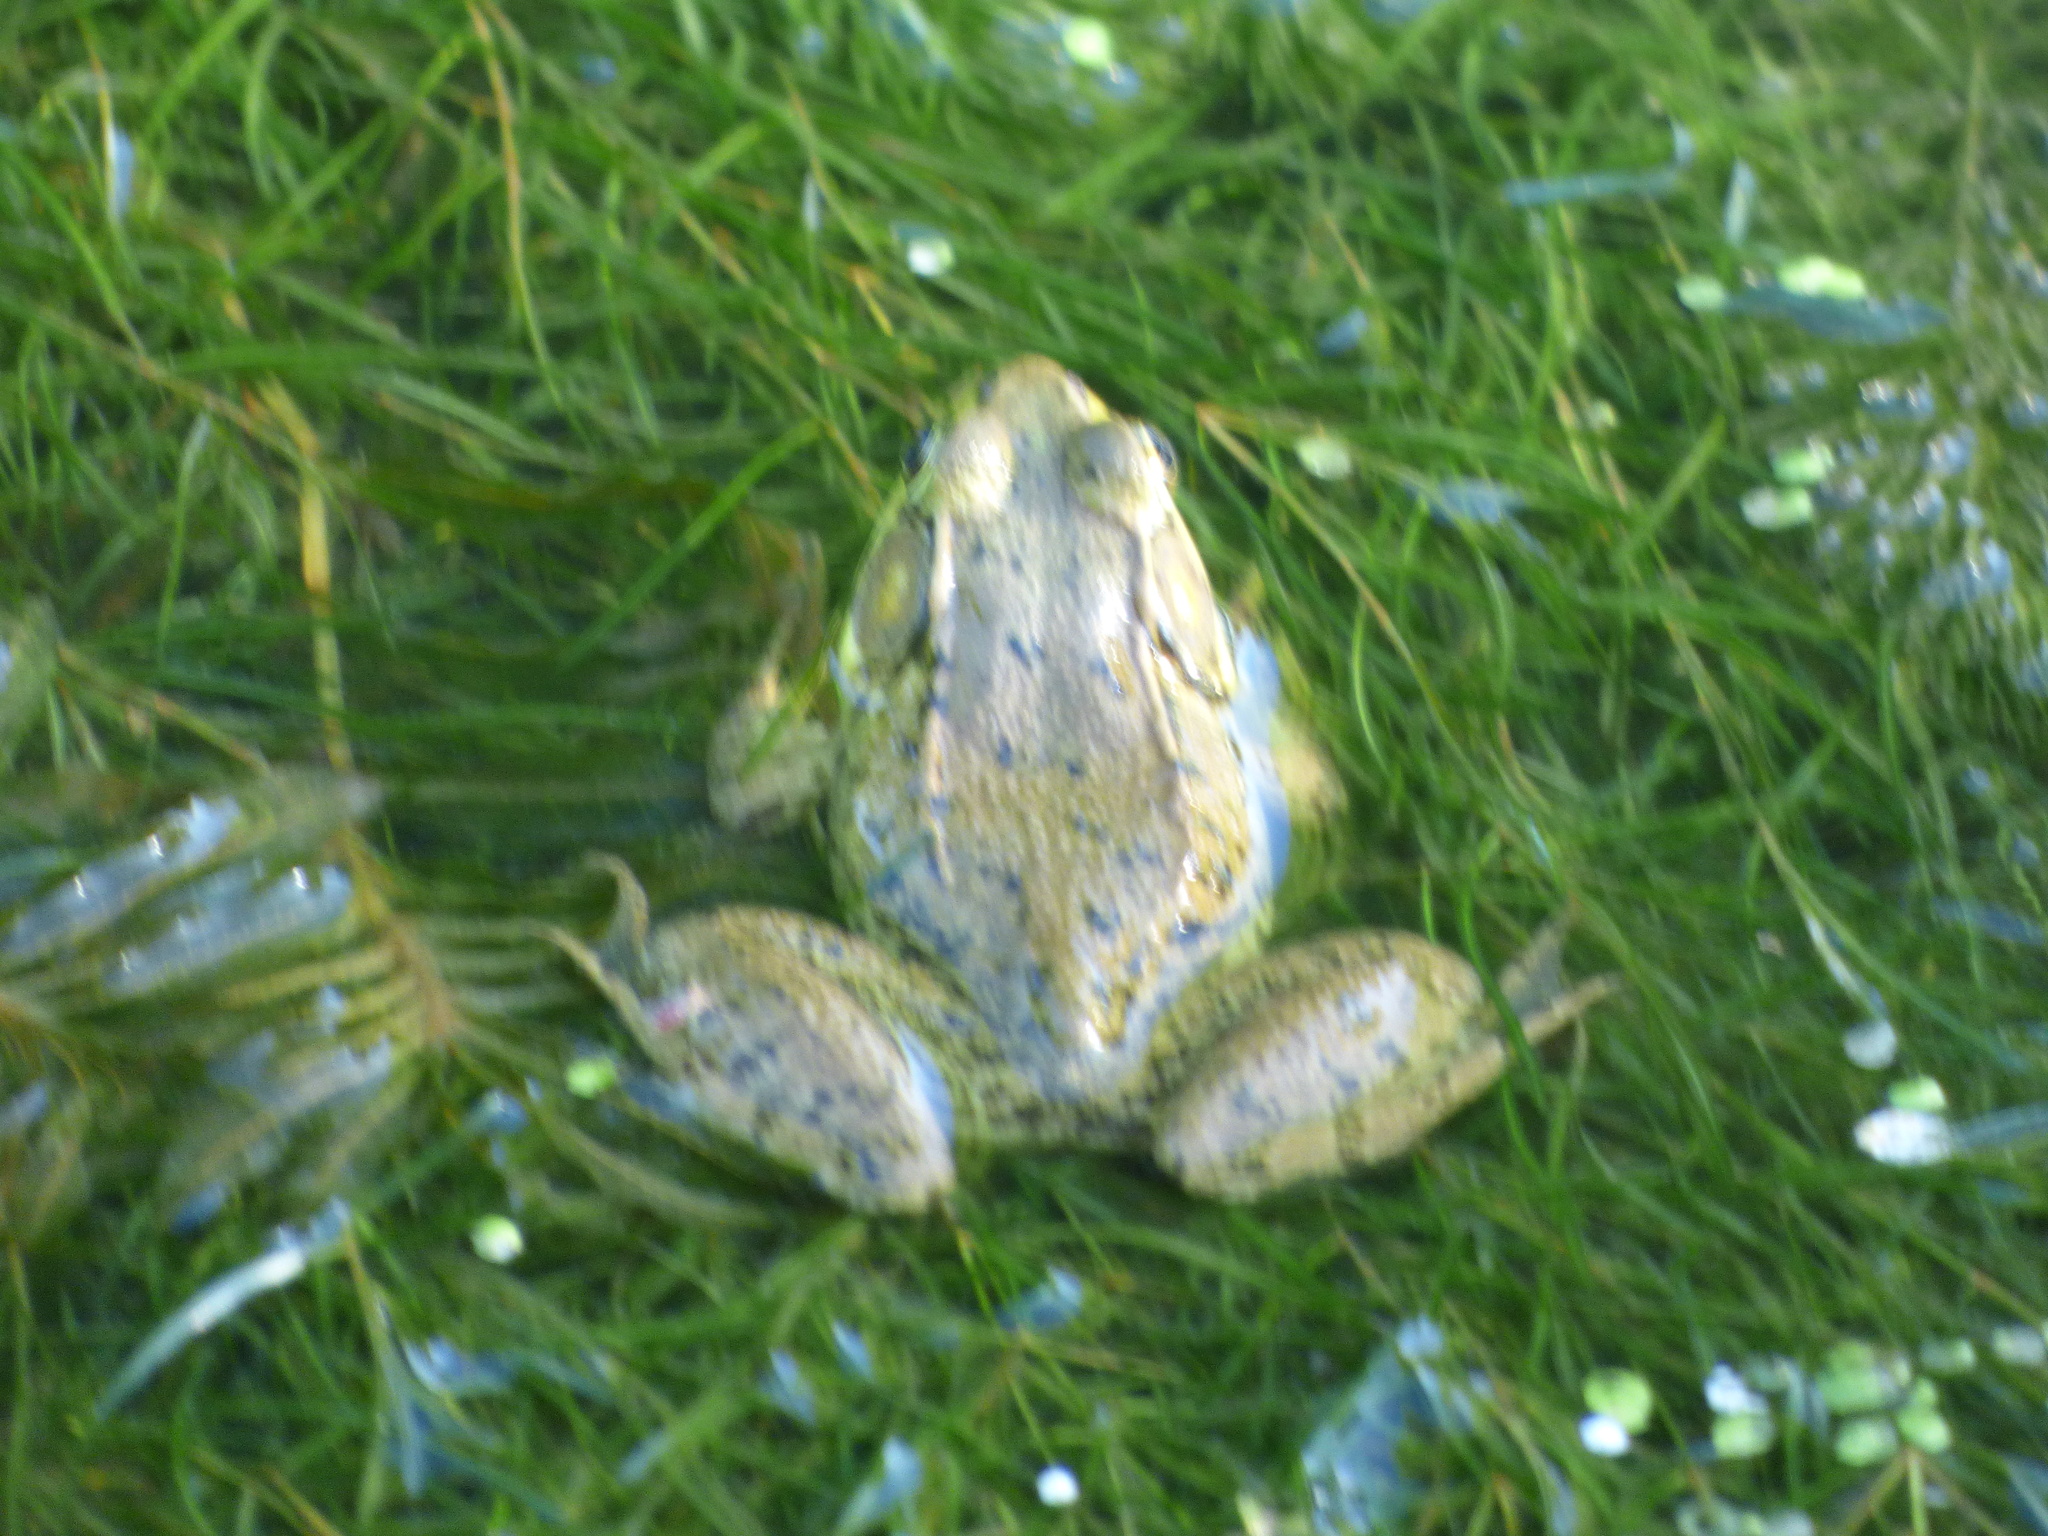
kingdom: Animalia
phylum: Chordata
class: Amphibia
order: Anura
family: Ranidae
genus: Lithobates
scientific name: Lithobates clamitans
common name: Green frog
